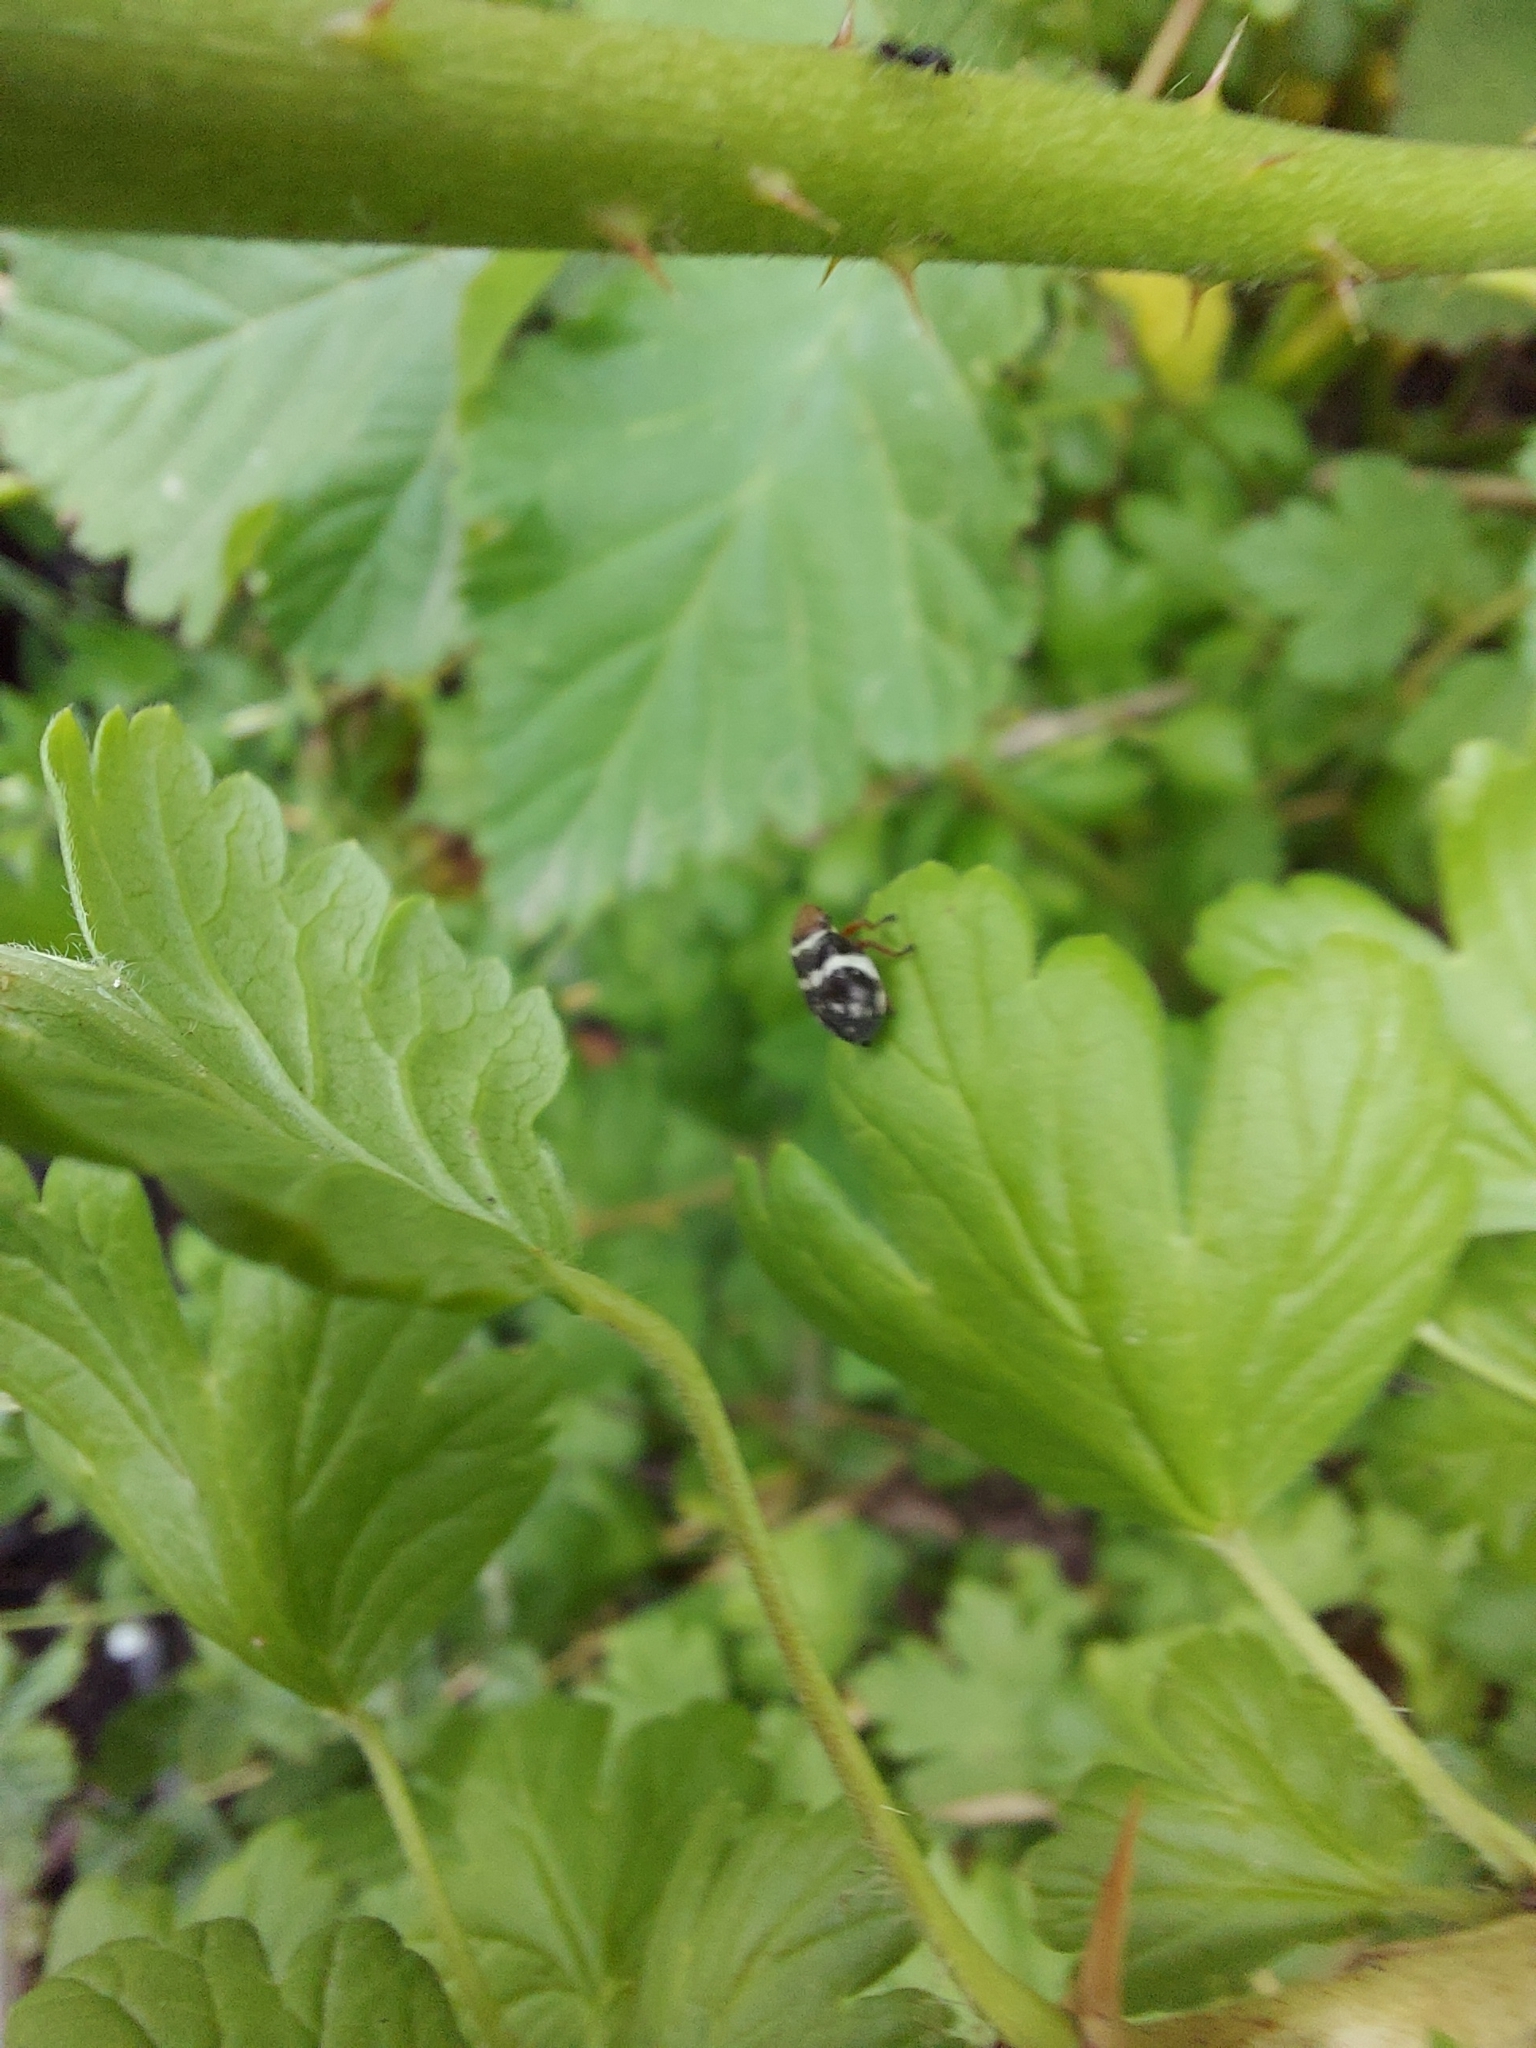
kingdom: Animalia
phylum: Arthropoda
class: Insecta
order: Hemiptera
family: Aphrophoridae
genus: Bathyllus
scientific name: Bathyllus albicinctus
